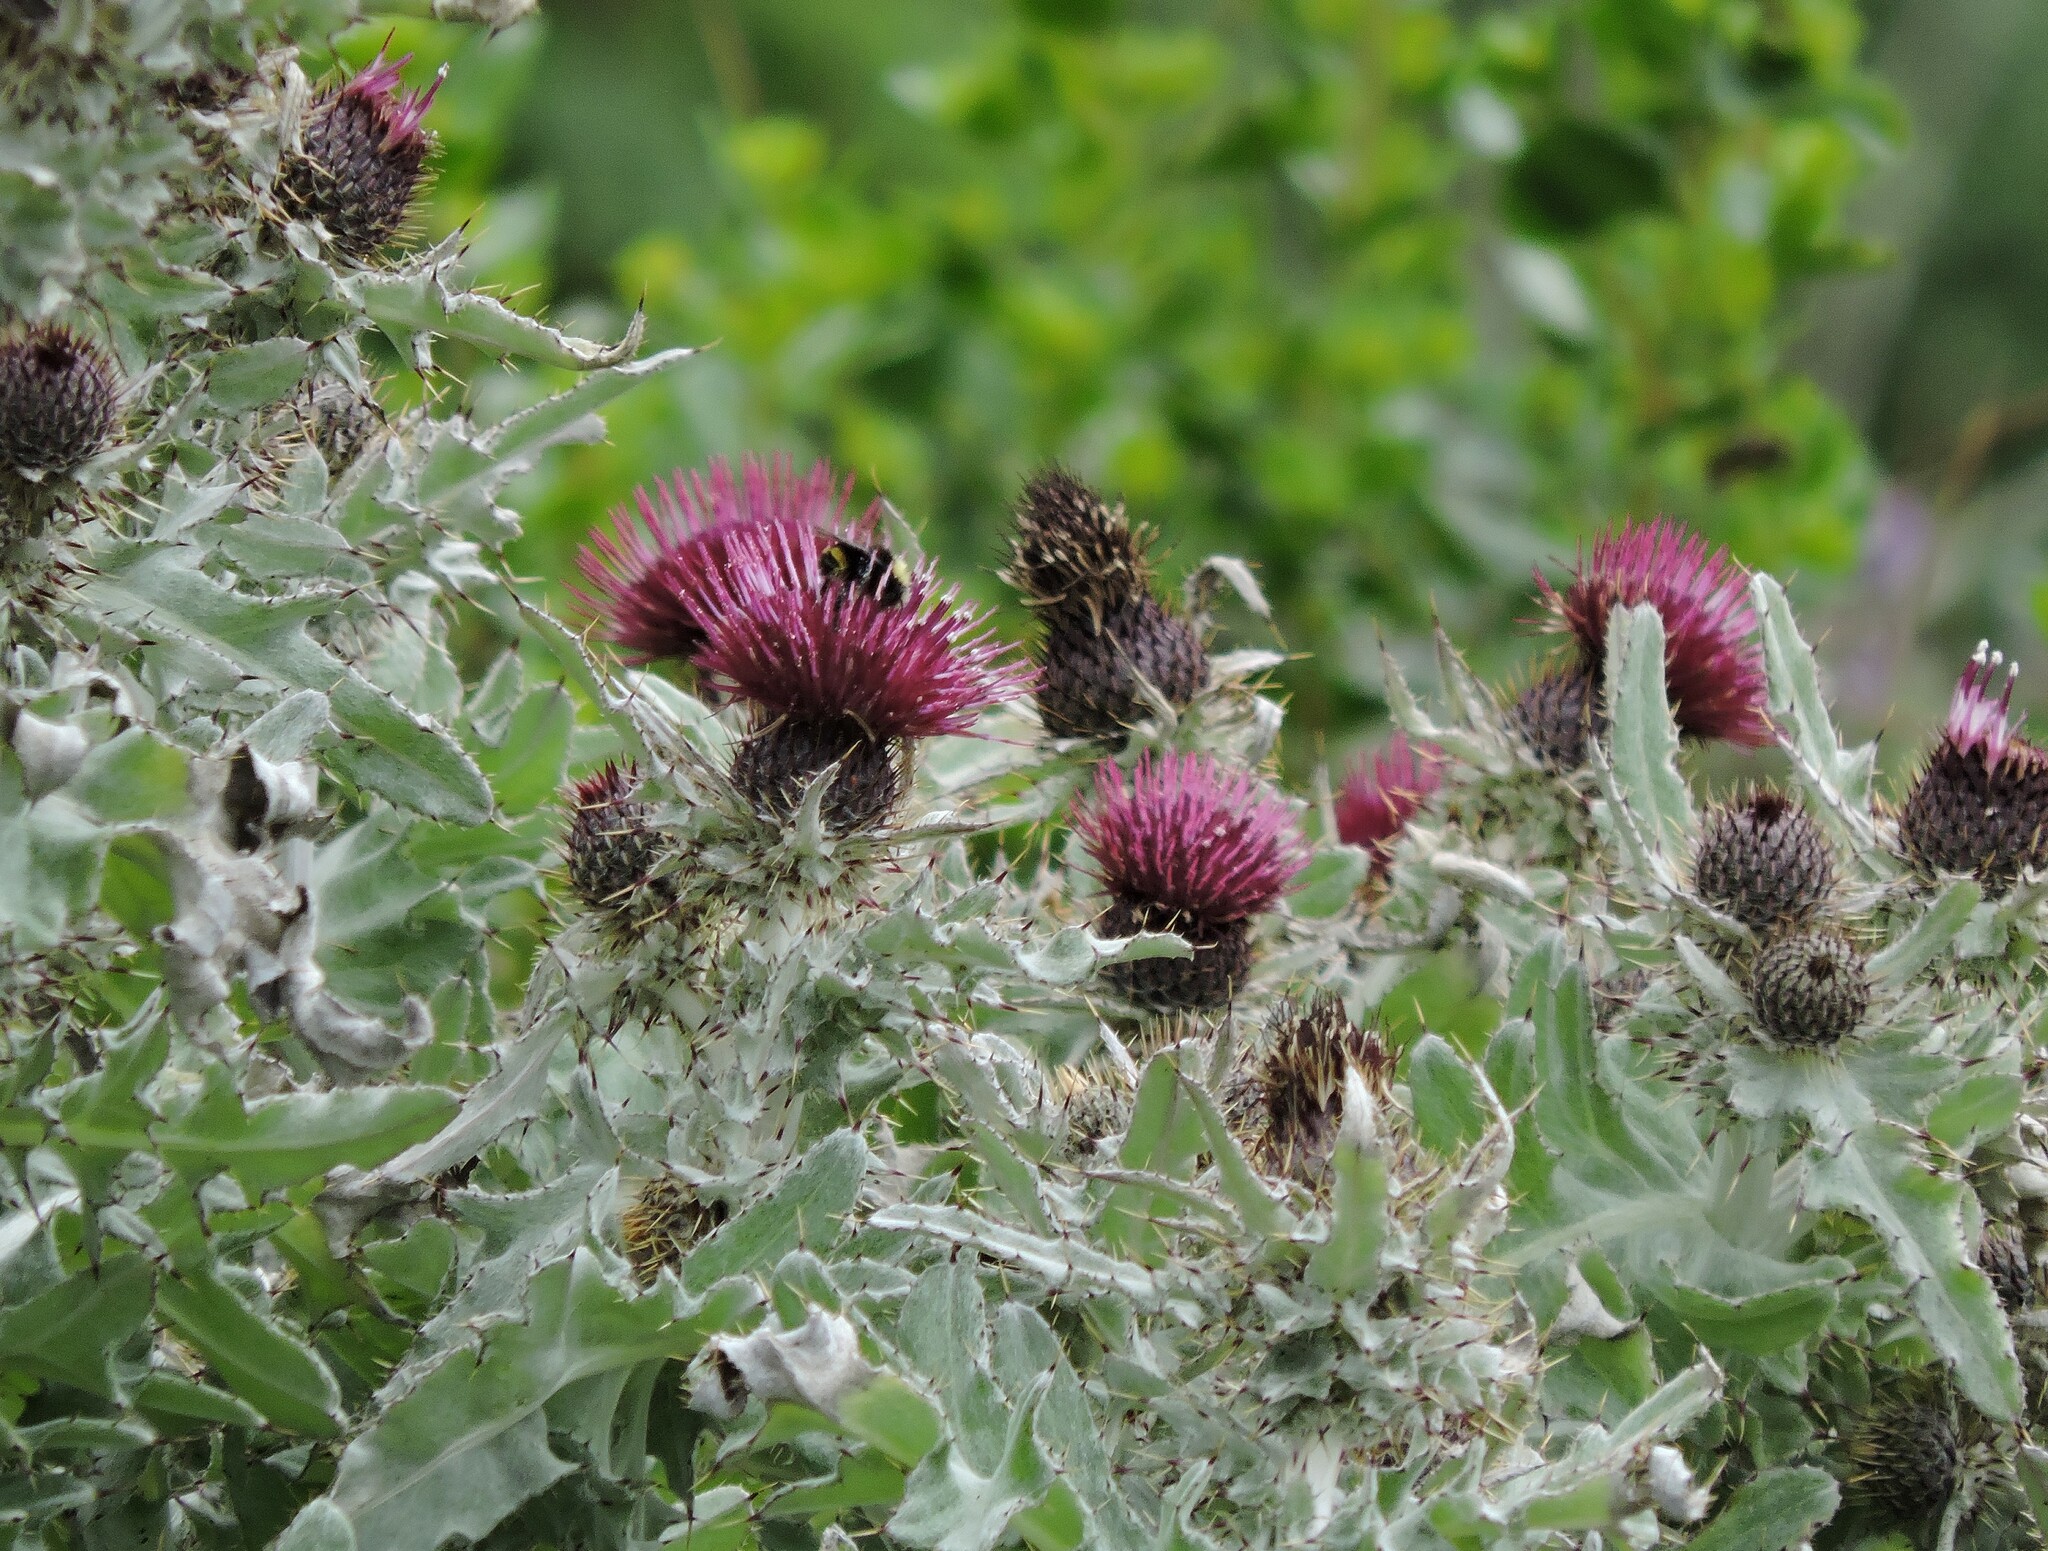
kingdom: Plantae
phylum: Tracheophyta
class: Magnoliopsida
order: Asterales
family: Asteraceae
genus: Cirsium
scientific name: Cirsium douglasii
